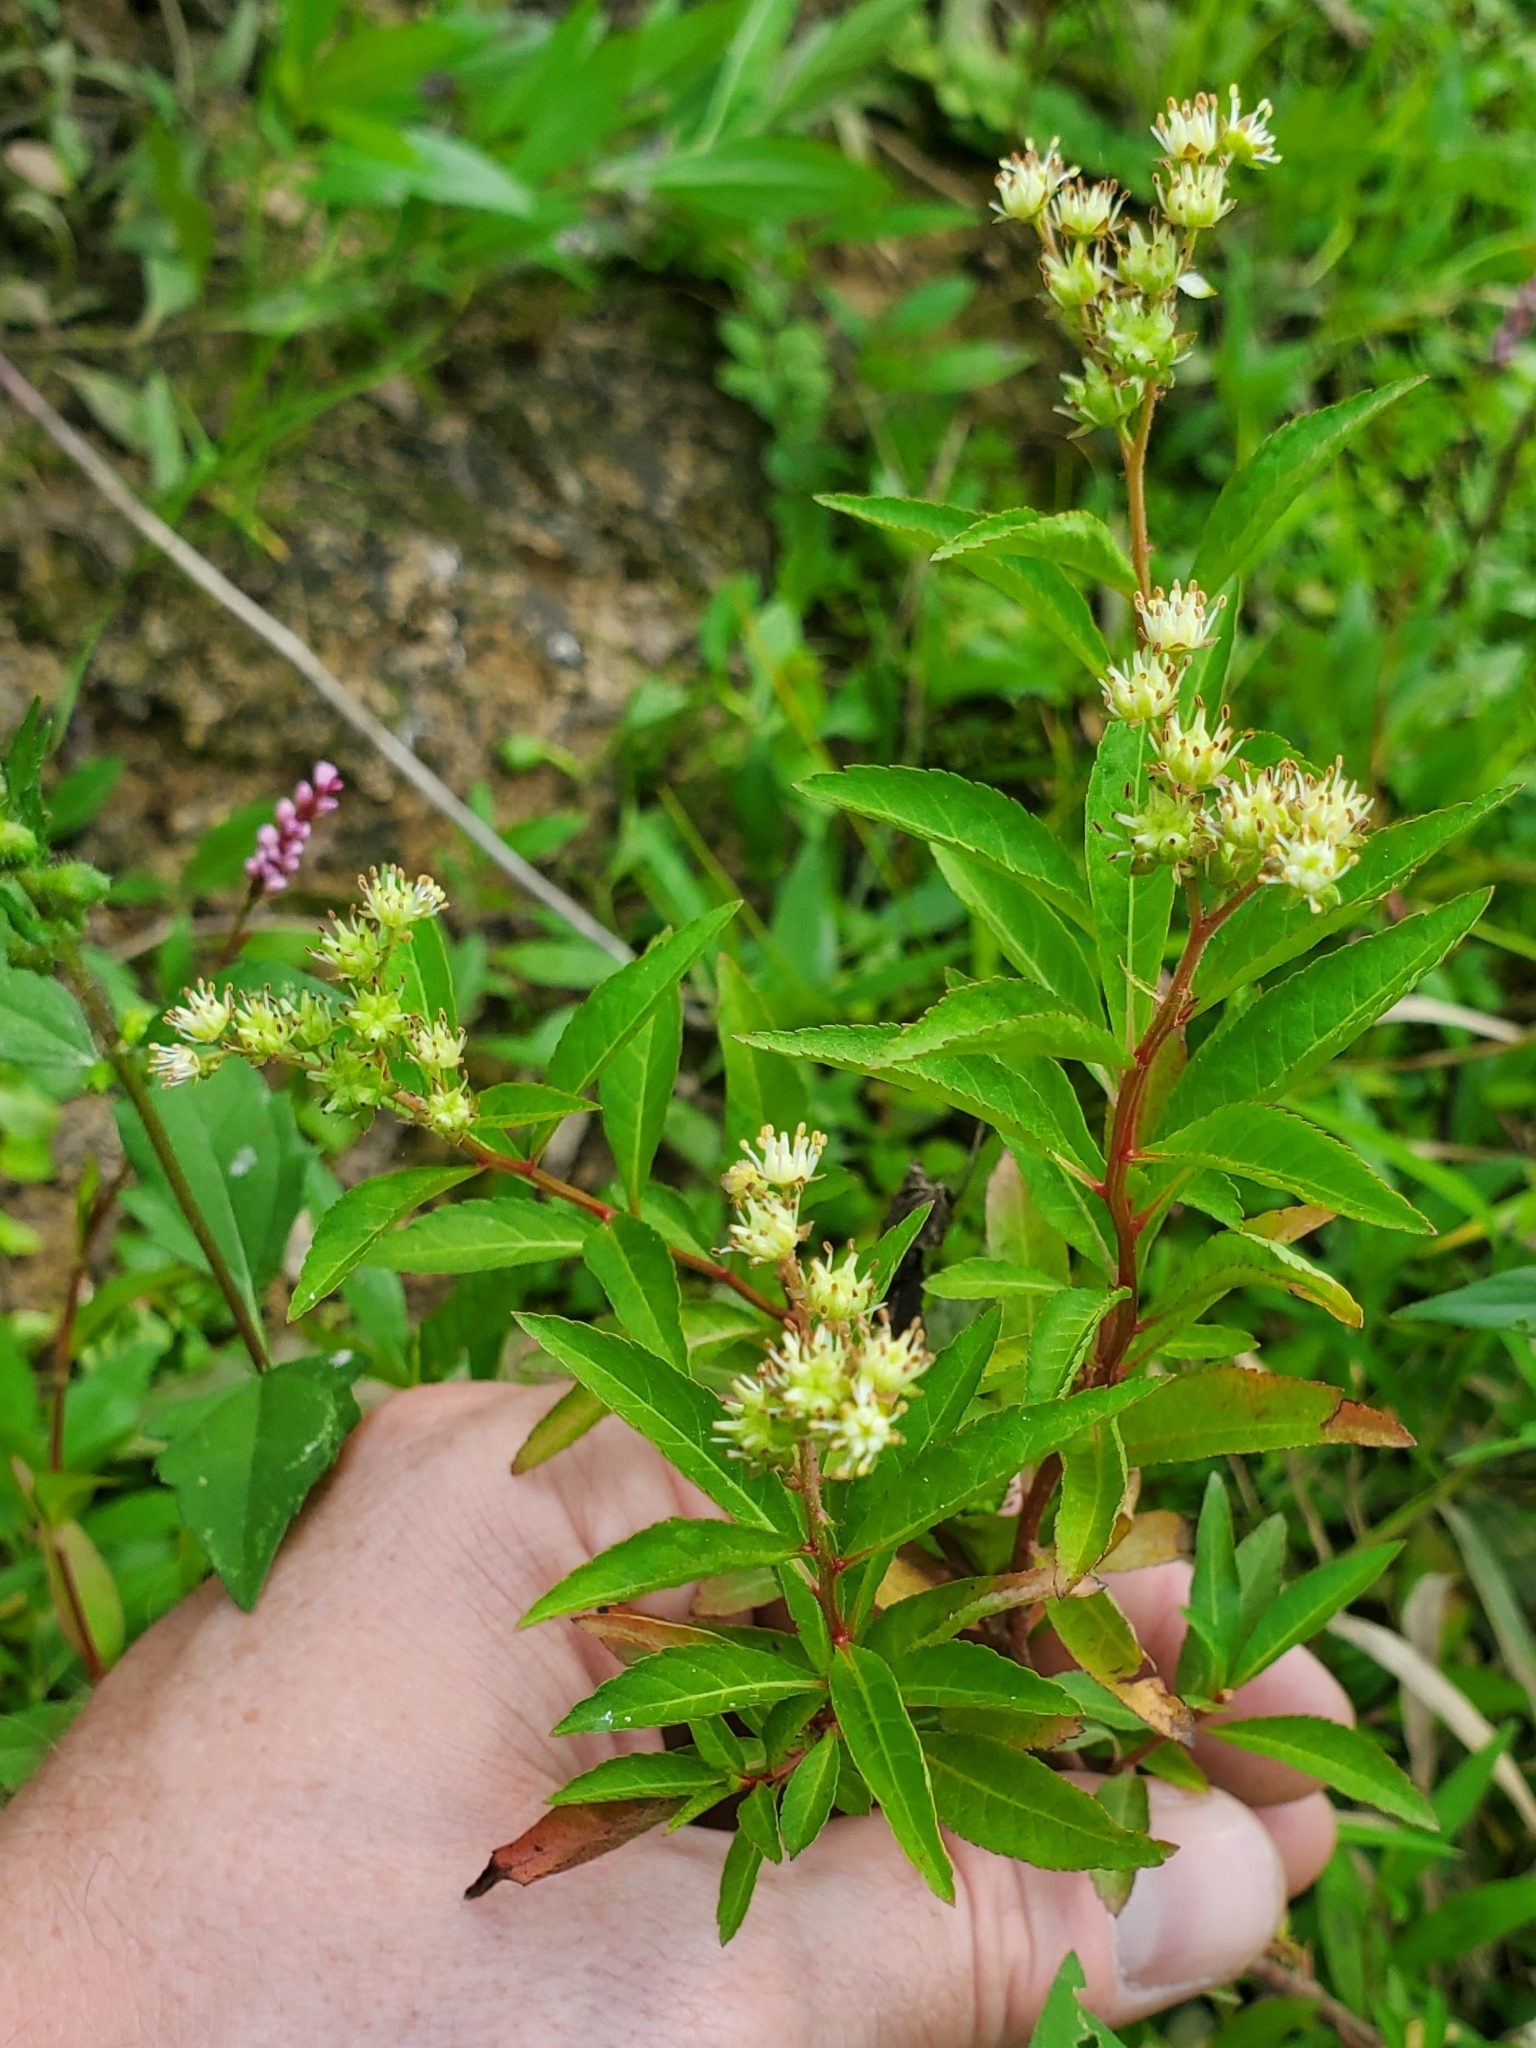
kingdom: Plantae
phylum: Tracheophyta
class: Magnoliopsida
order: Saxifragales
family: Penthoraceae
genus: Penthorum
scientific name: Penthorum sedoides
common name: Ditch stonecrop
